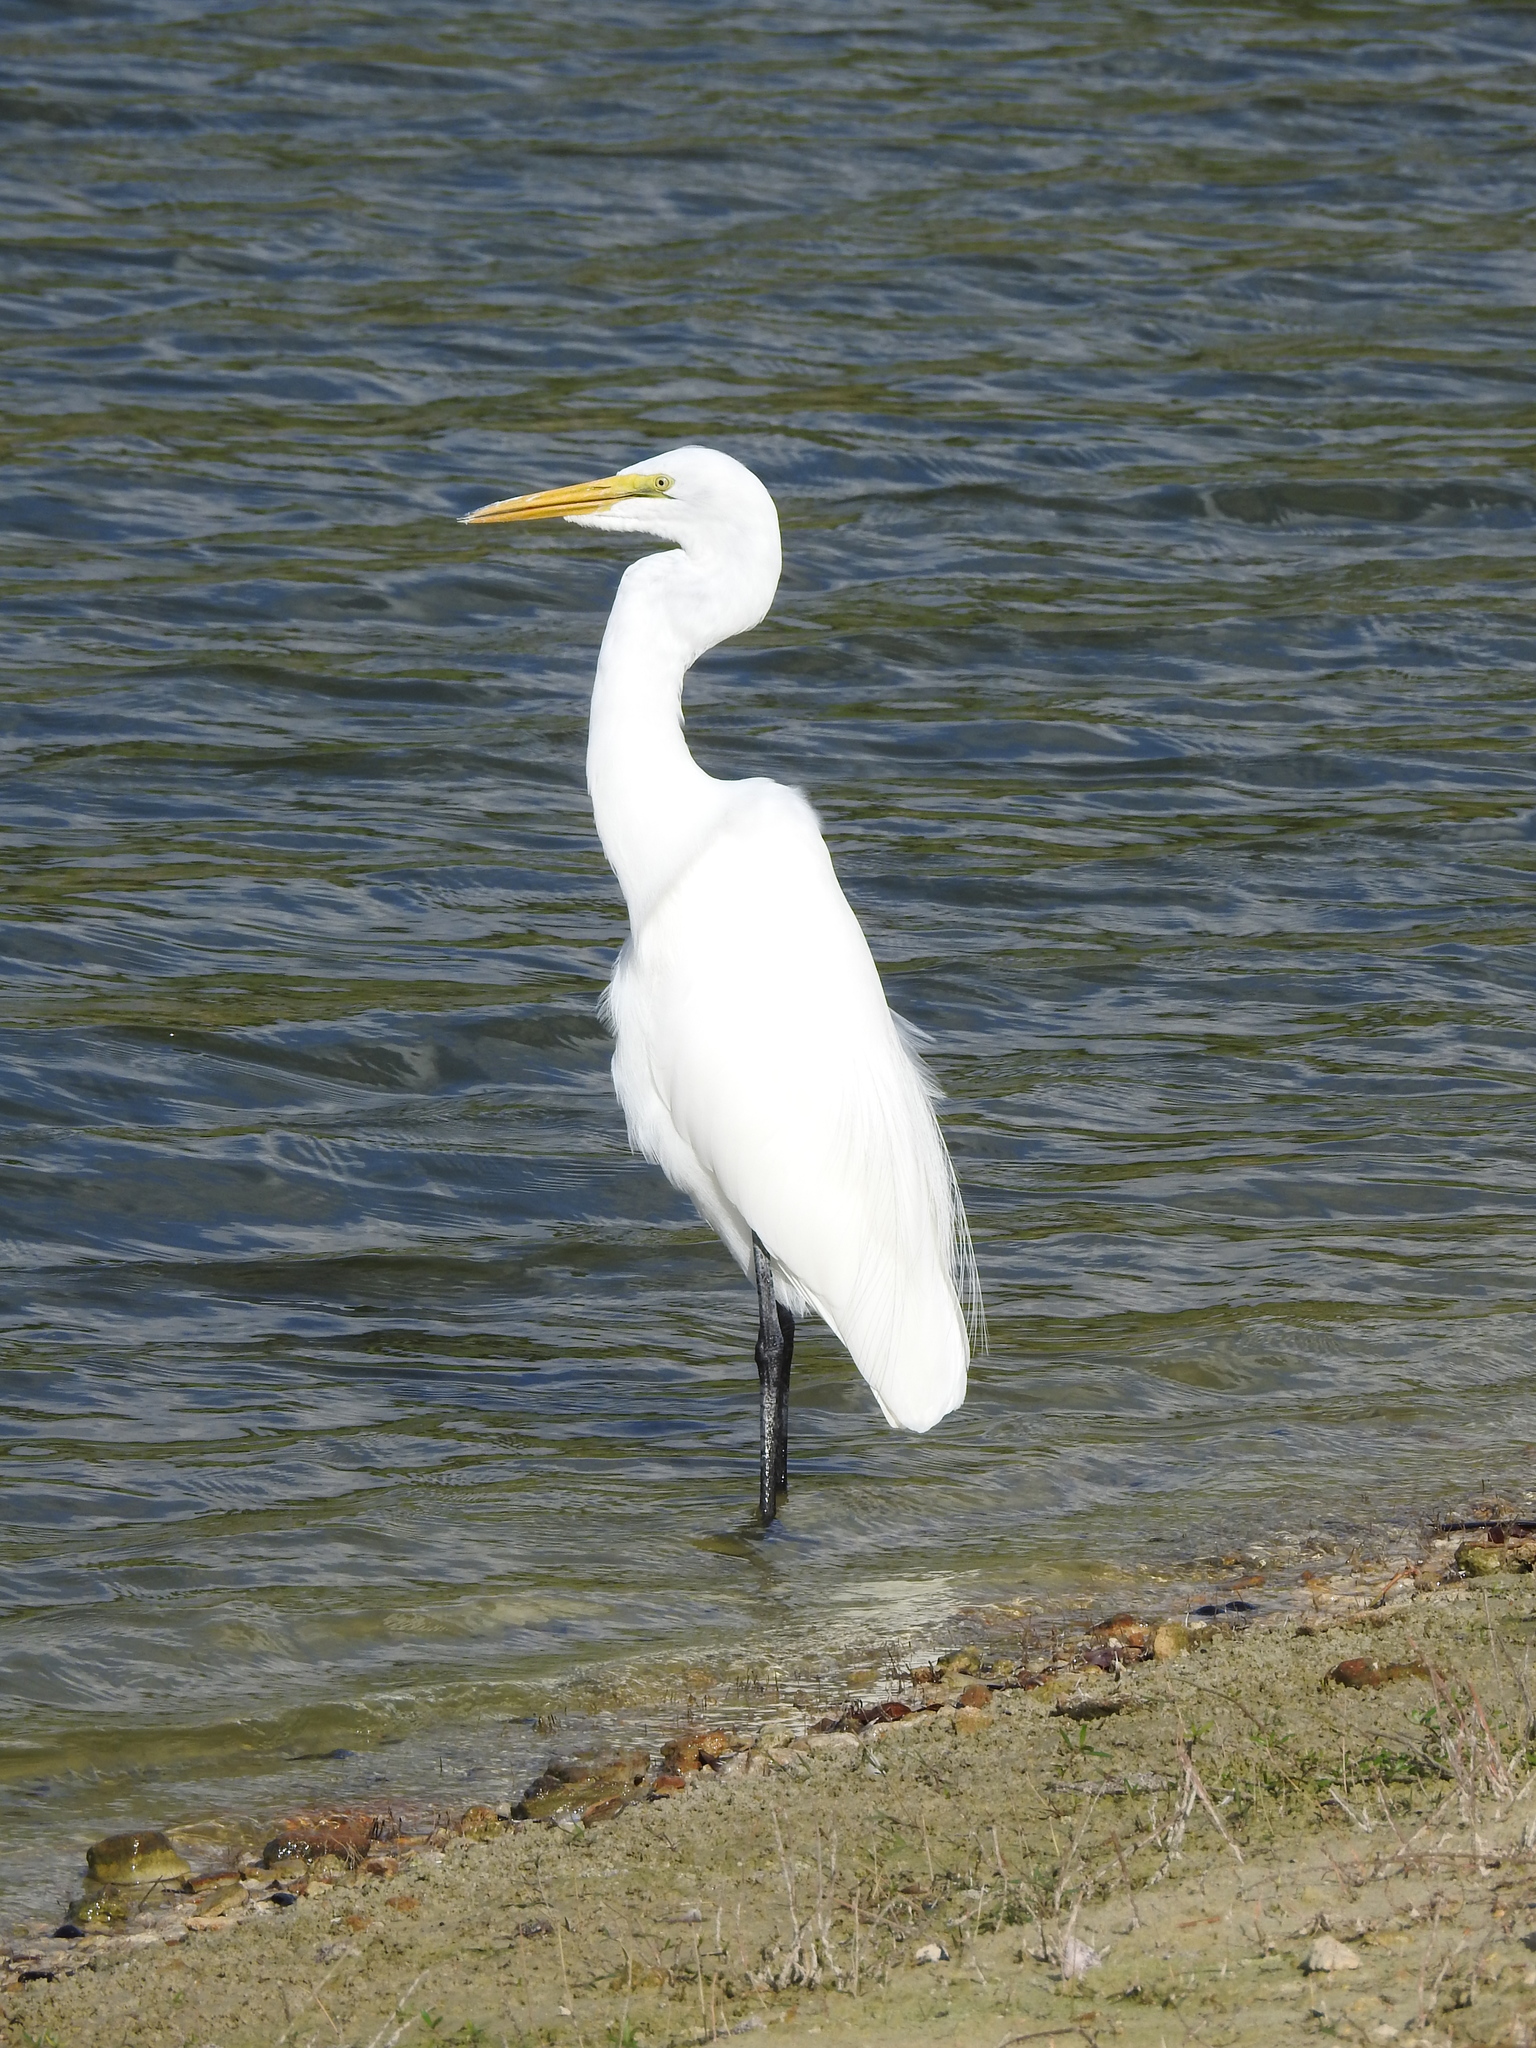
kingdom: Animalia
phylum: Chordata
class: Aves
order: Pelecaniformes
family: Ardeidae
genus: Ardea
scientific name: Ardea alba
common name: Great egret
